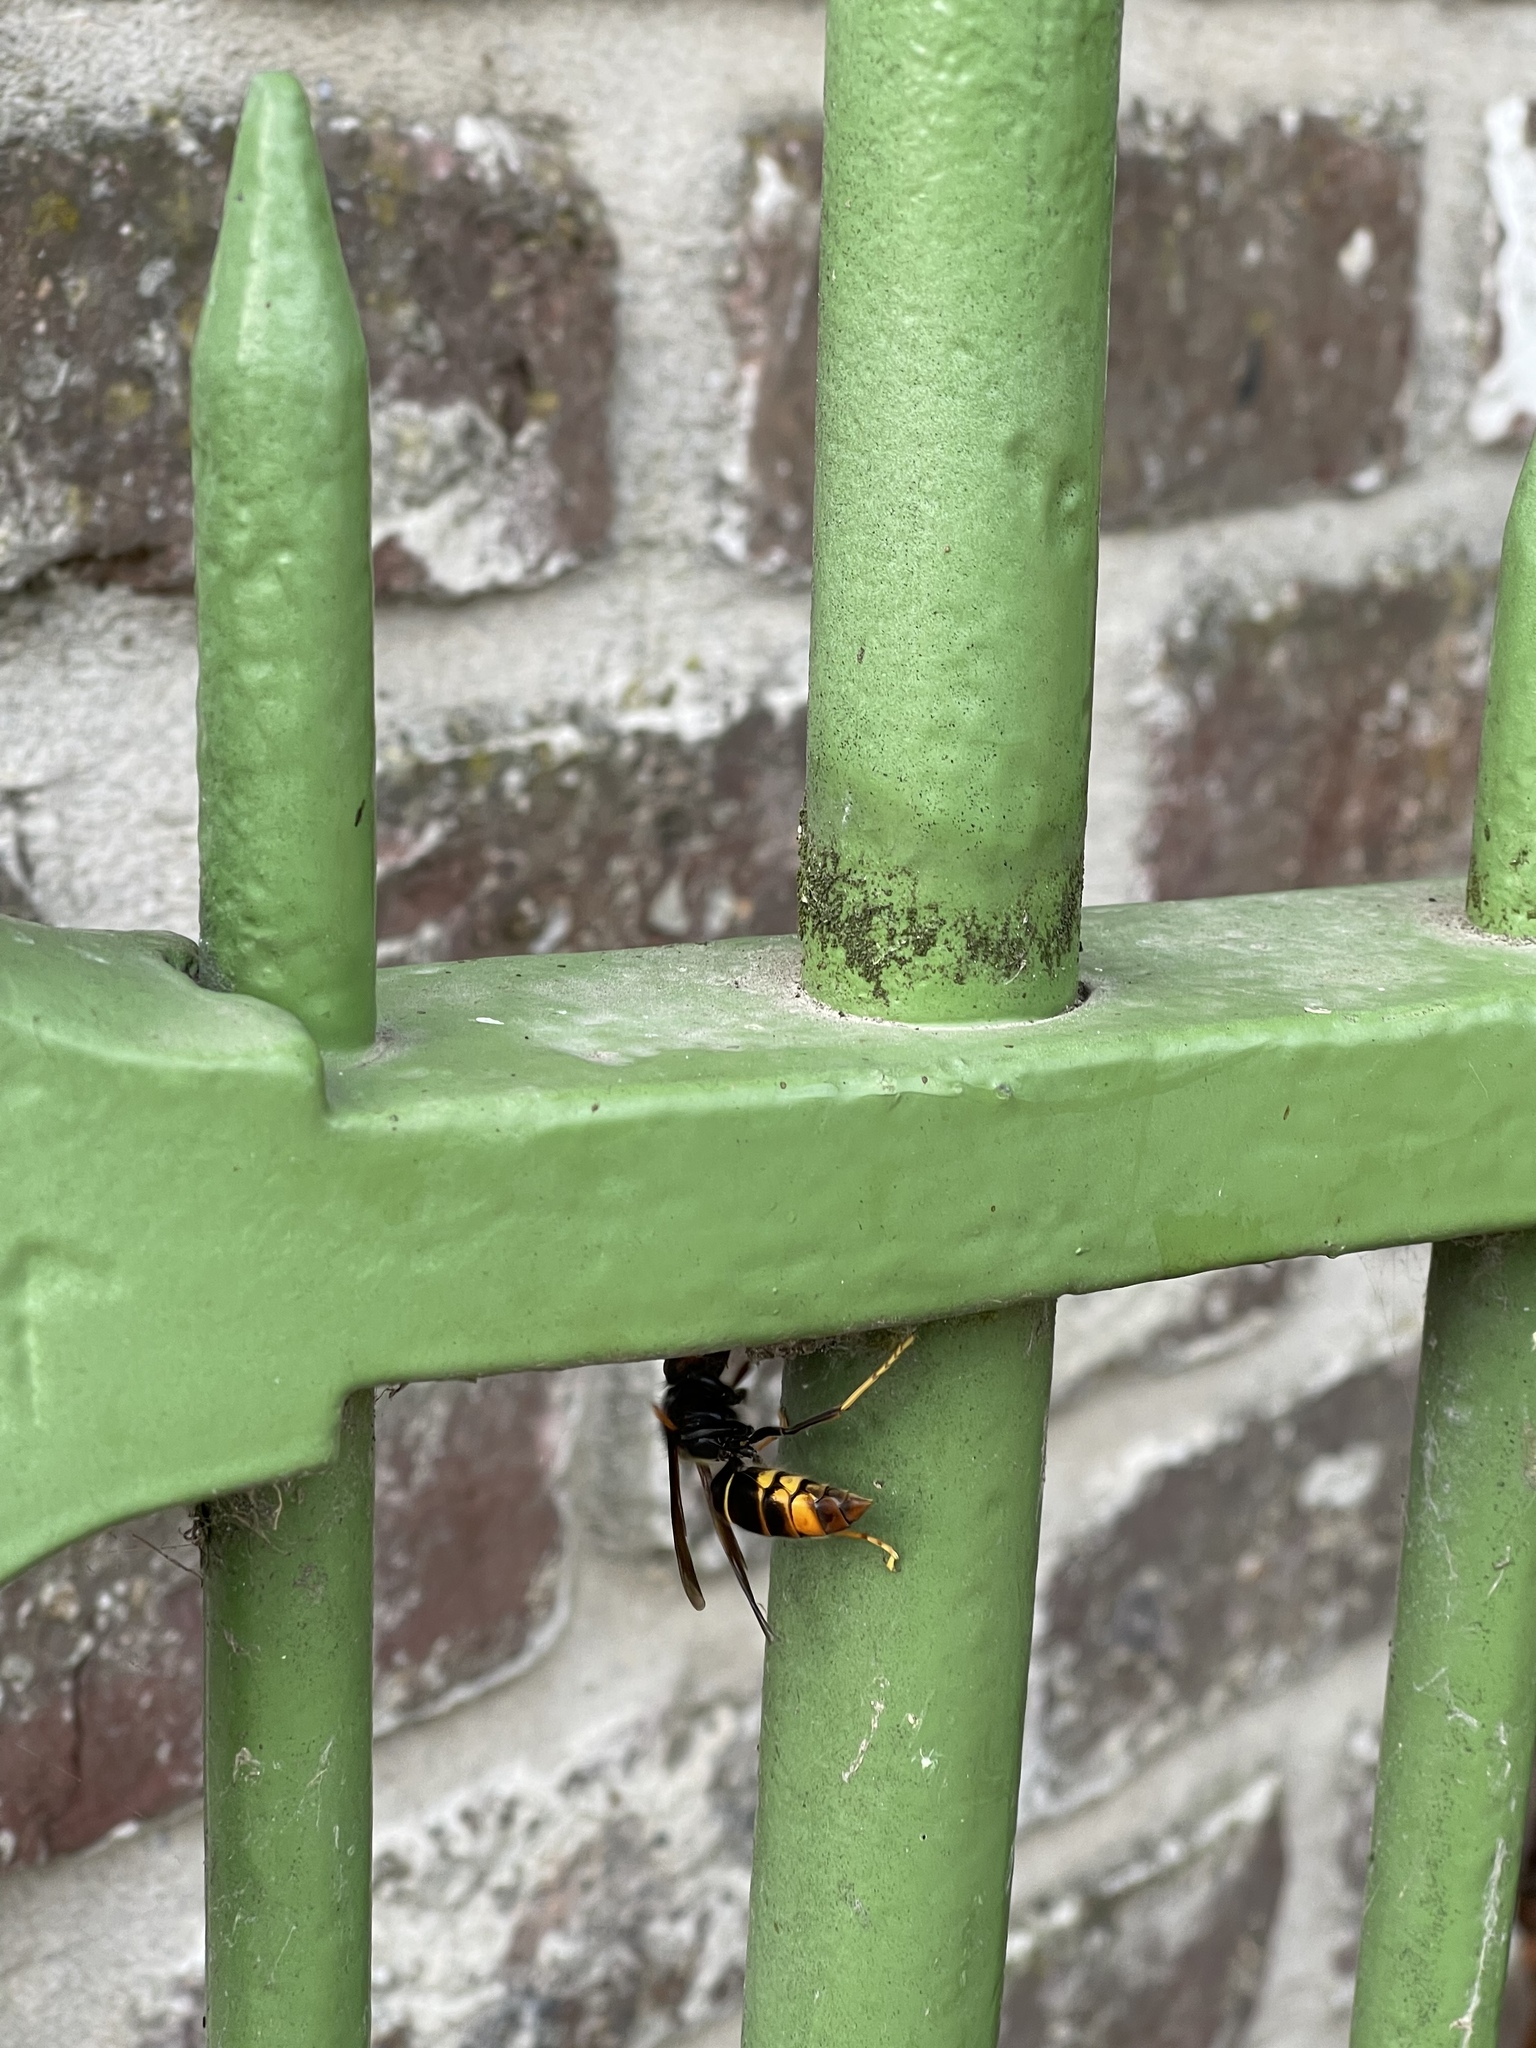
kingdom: Animalia
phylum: Arthropoda
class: Insecta
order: Hymenoptera
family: Vespidae
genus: Vespa
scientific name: Vespa velutina
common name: Asian hornet
